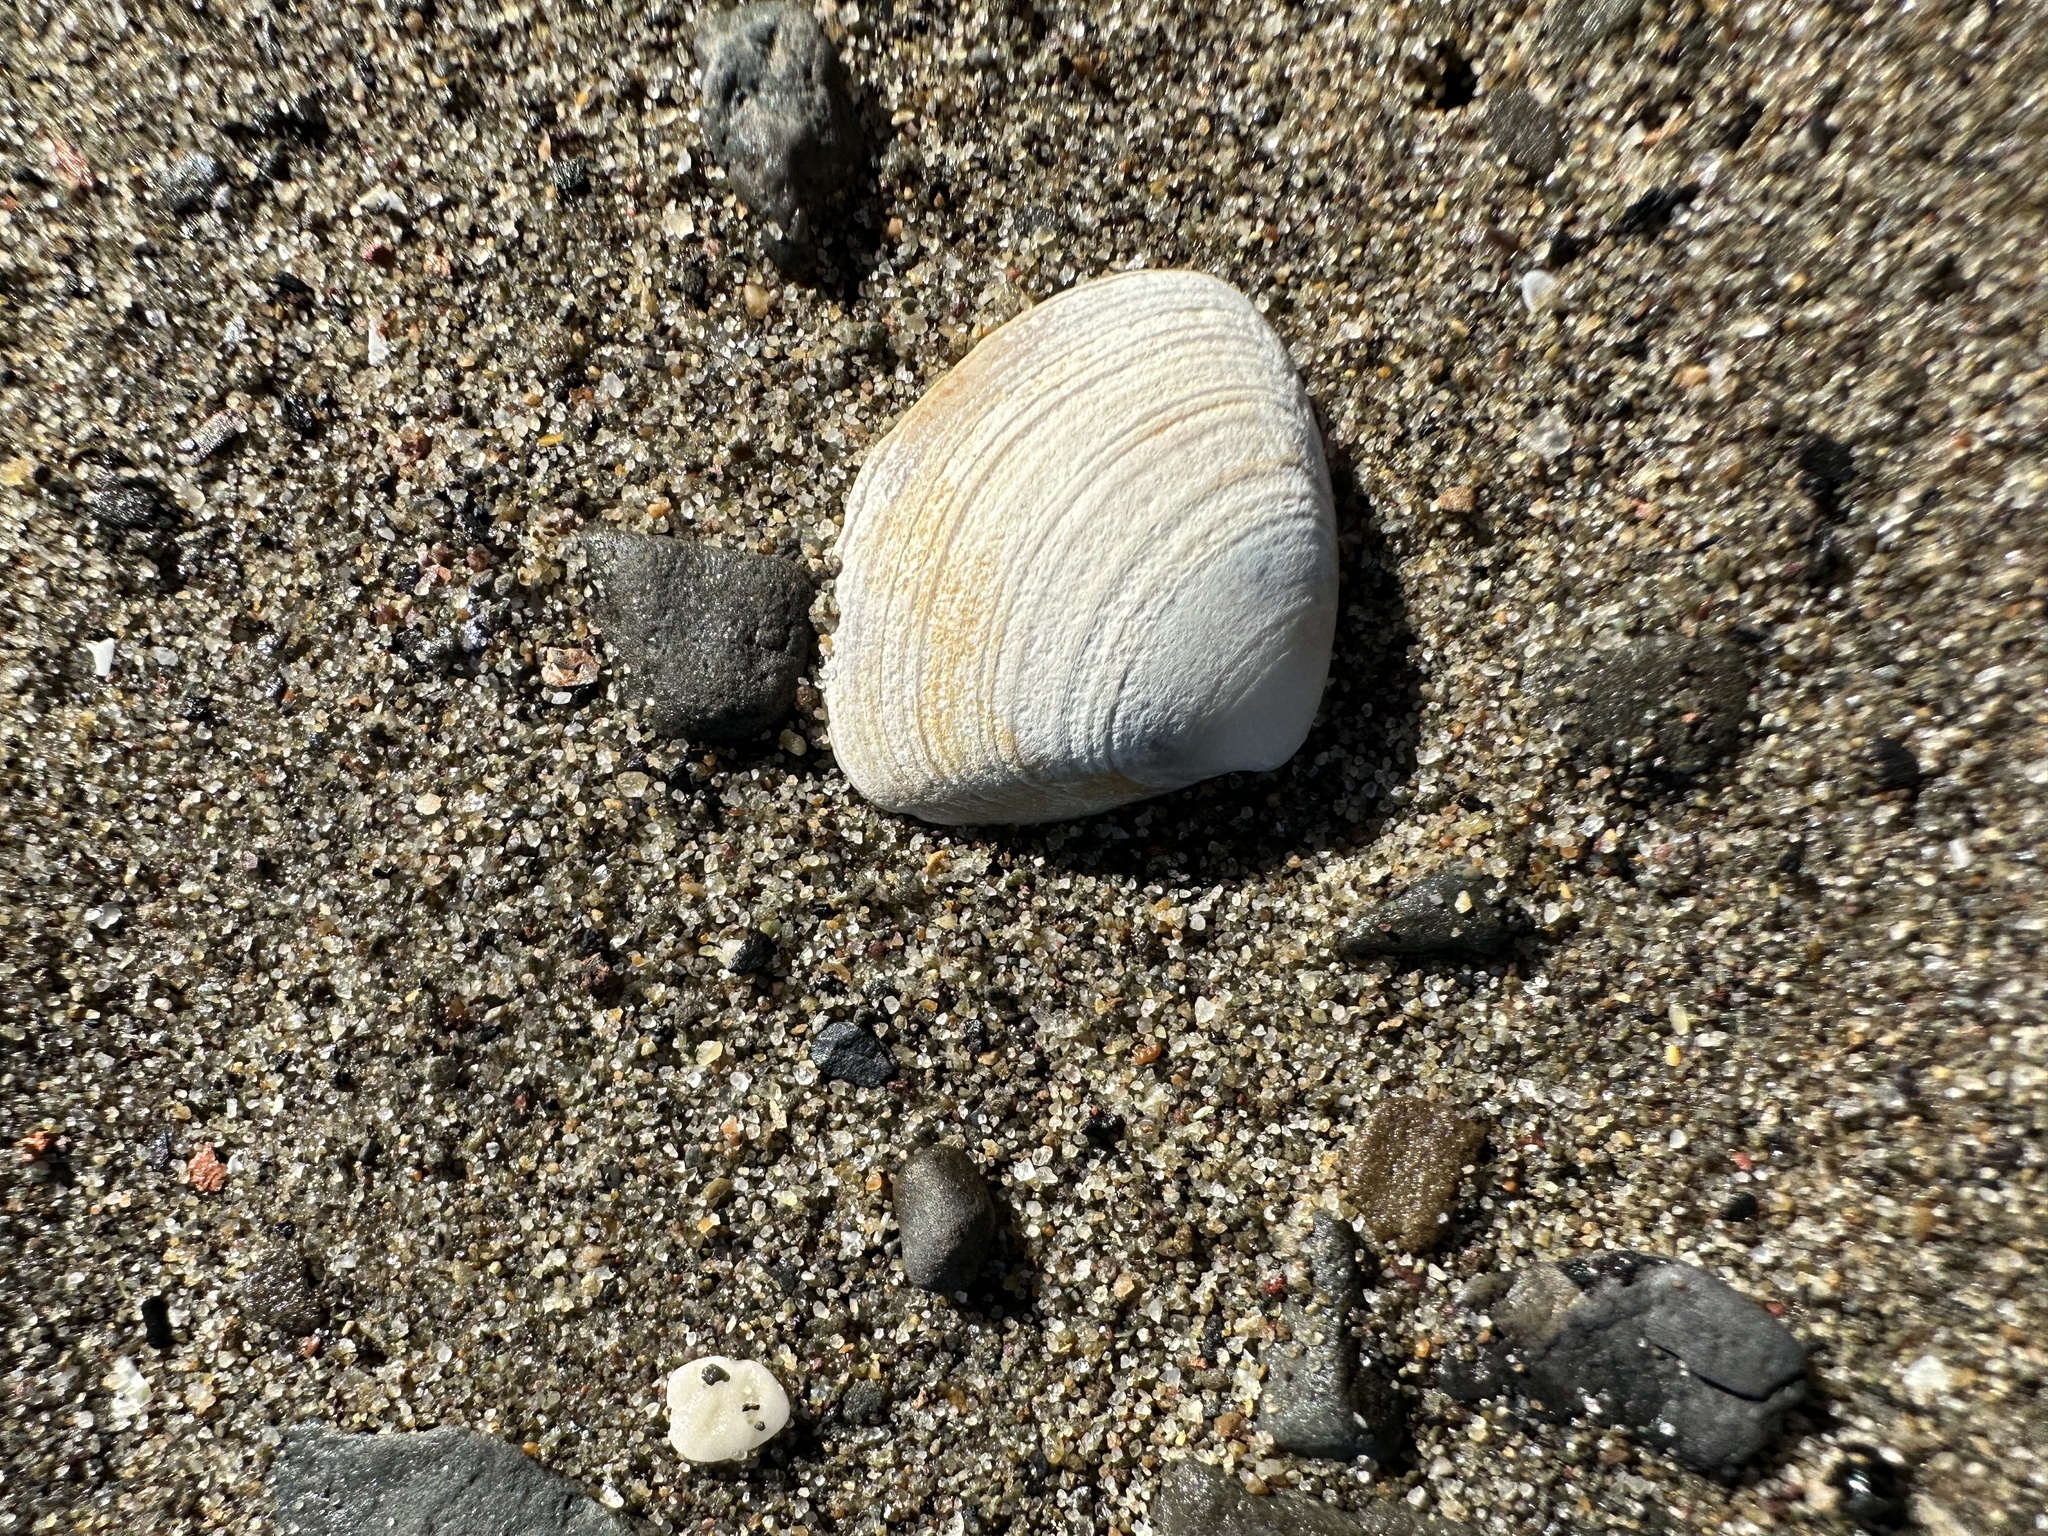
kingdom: Animalia
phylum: Mollusca
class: Bivalvia
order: Venerida
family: Mactridae
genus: Spisula
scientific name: Spisula solidissima
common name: Atlantic surf clam
